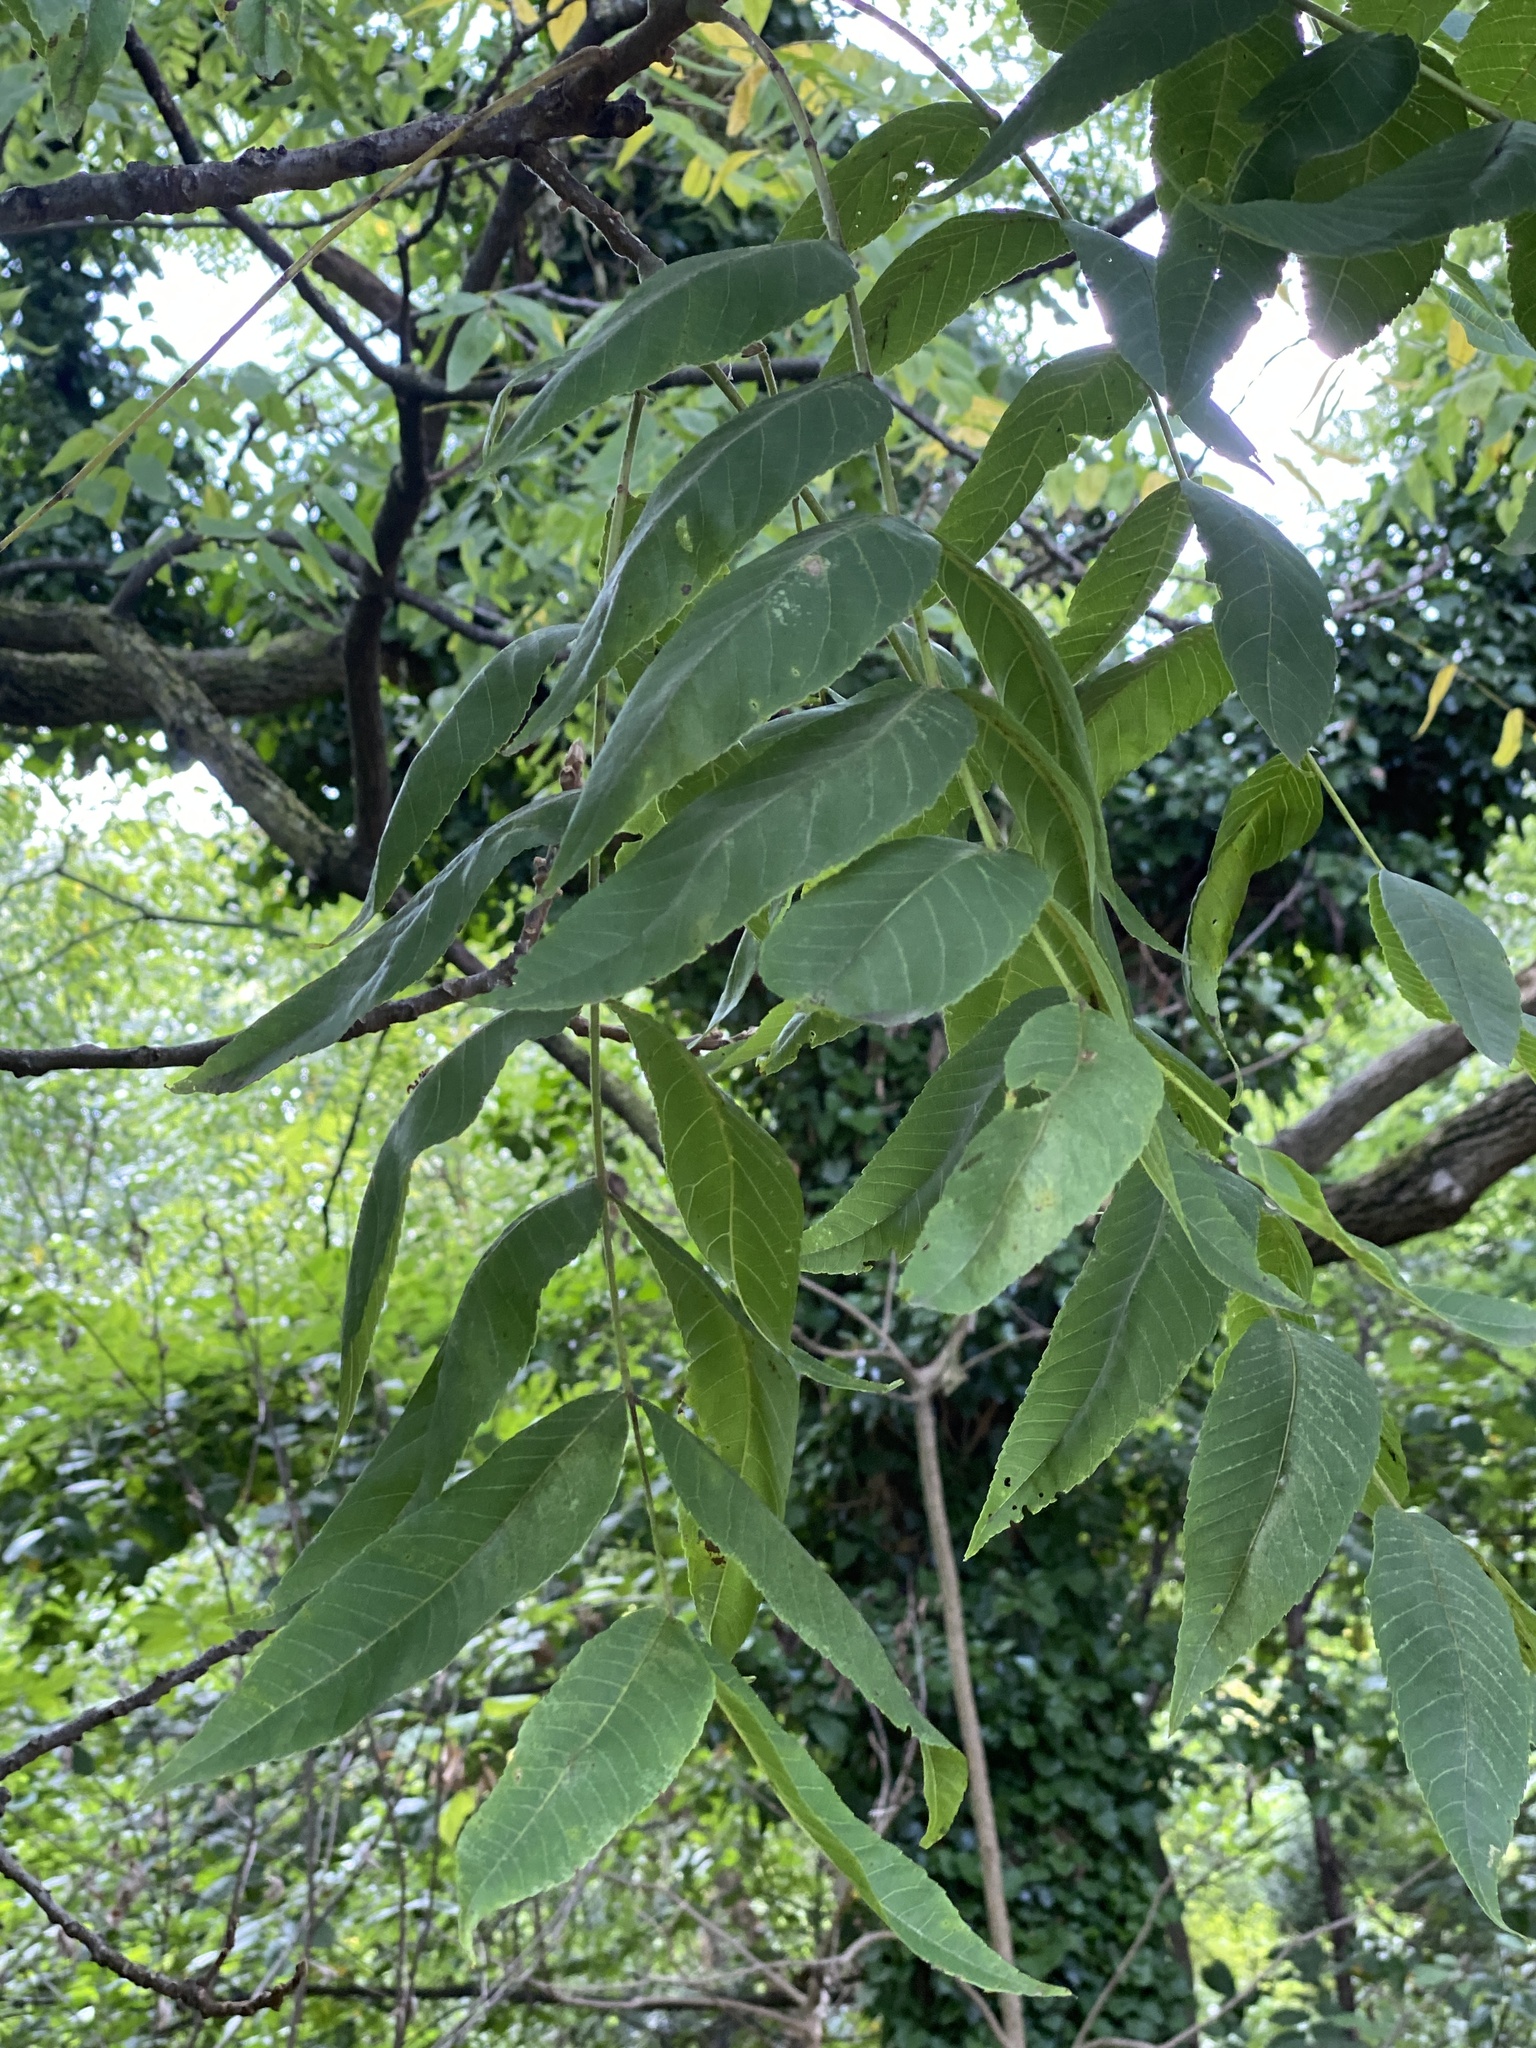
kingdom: Plantae
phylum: Tracheophyta
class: Magnoliopsida
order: Fagales
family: Juglandaceae
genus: Juglans
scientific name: Juglans nigra
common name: Black walnut
